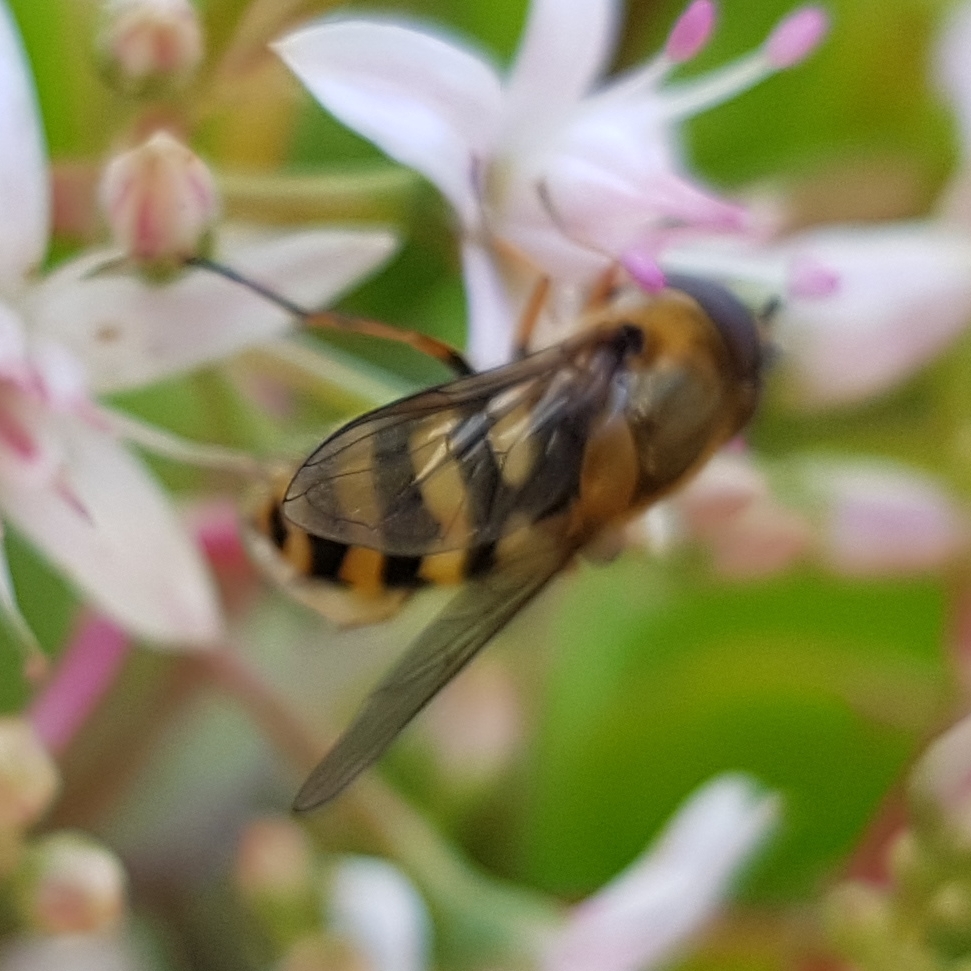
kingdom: Animalia
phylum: Arthropoda
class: Insecta
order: Diptera
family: Syrphidae
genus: Syrphus
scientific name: Syrphus
